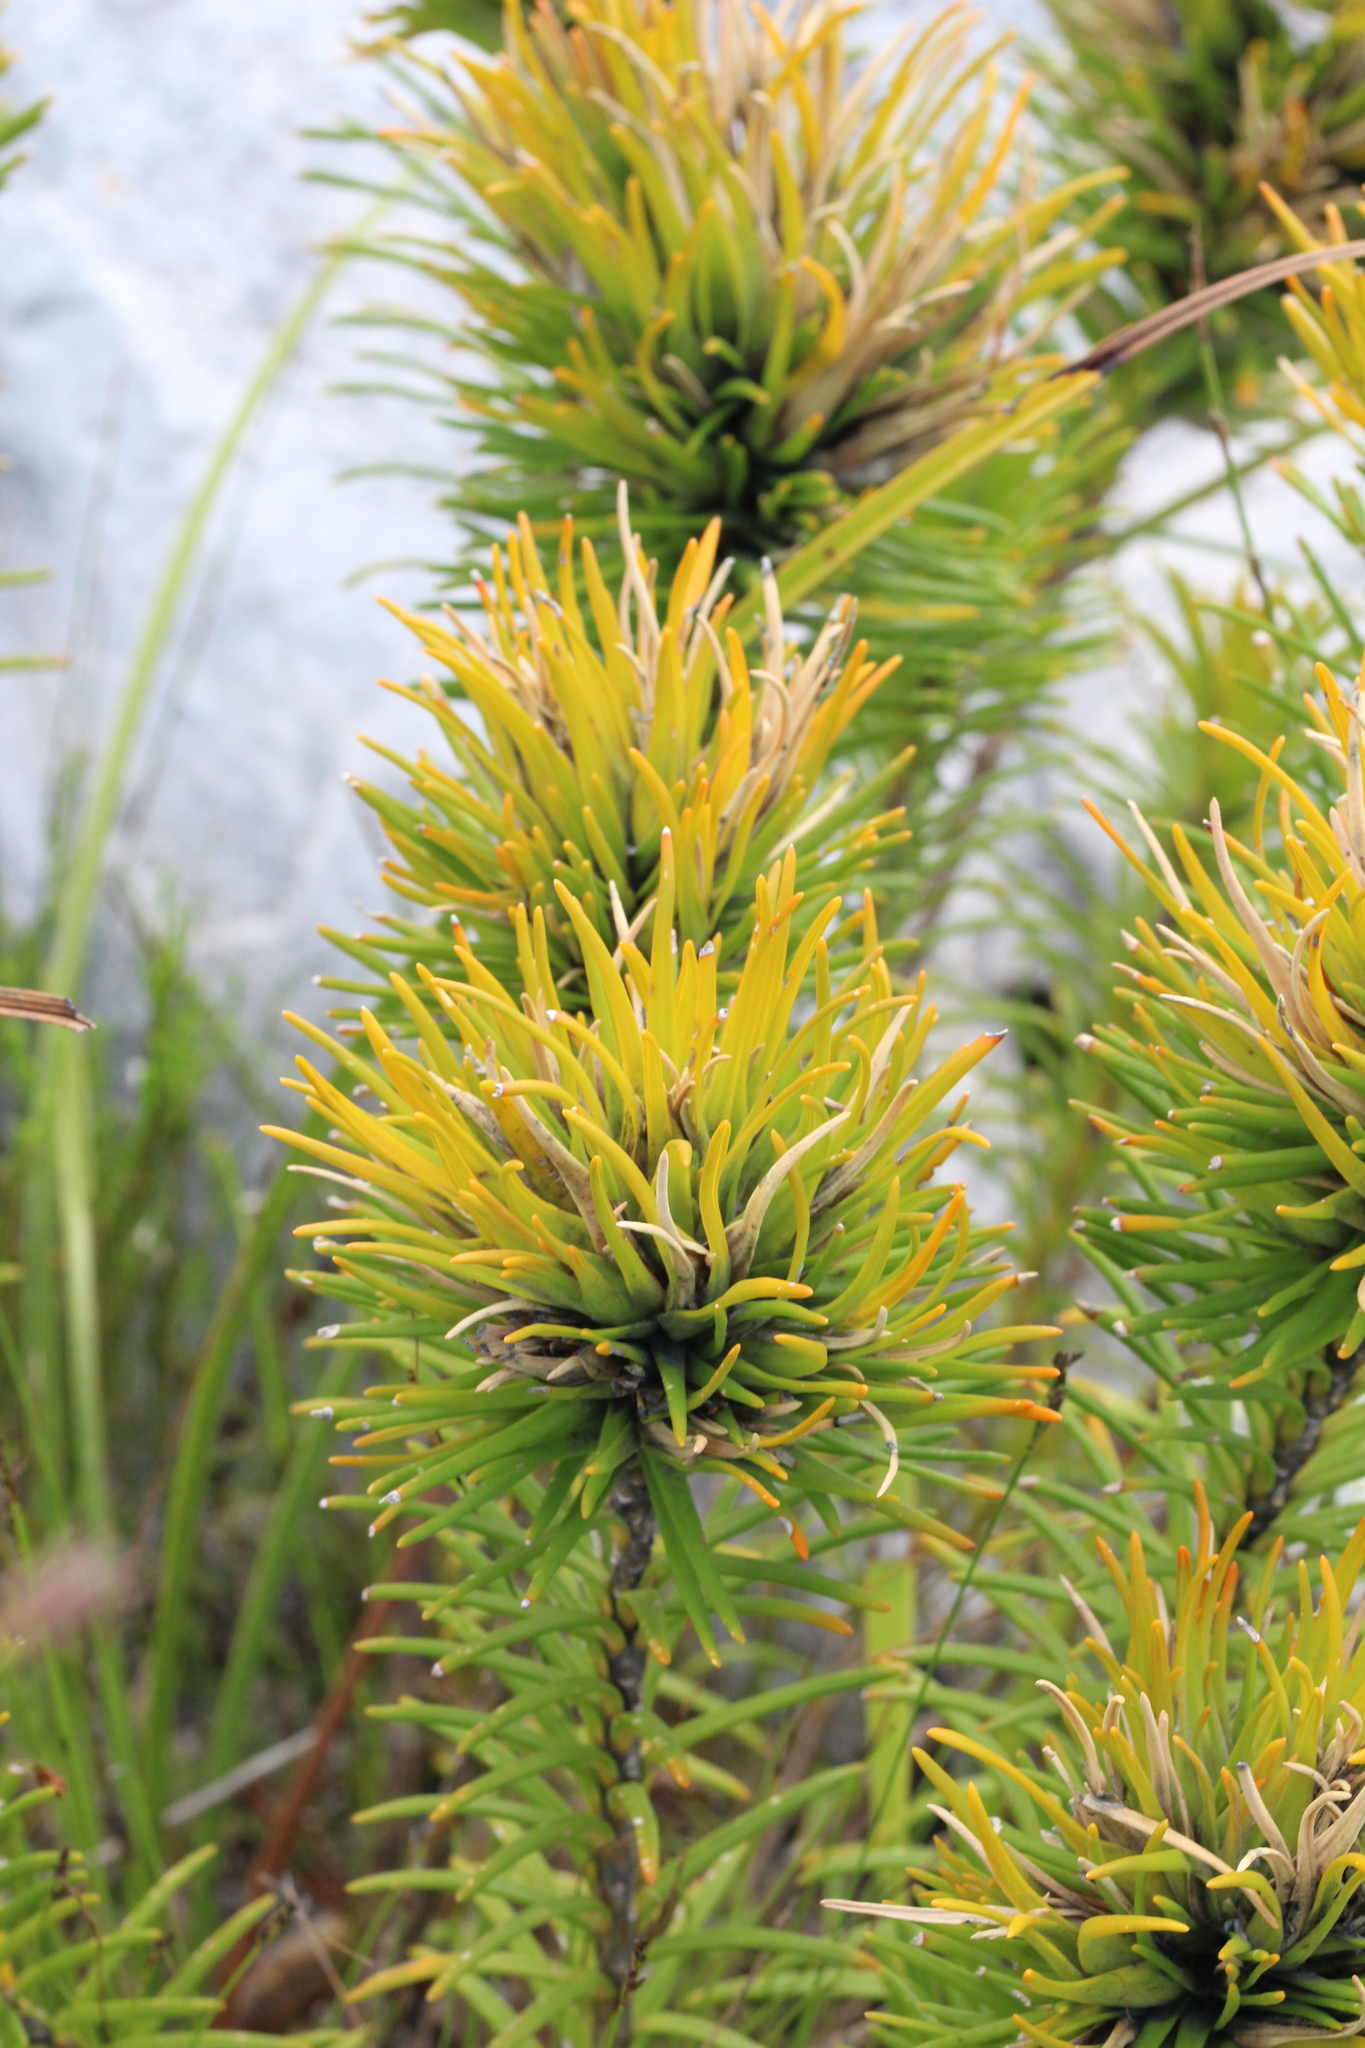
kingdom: Plantae
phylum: Tracheophyta
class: Magnoliopsida
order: Lamiales
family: Stilbaceae
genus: Retzia
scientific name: Retzia capensis
